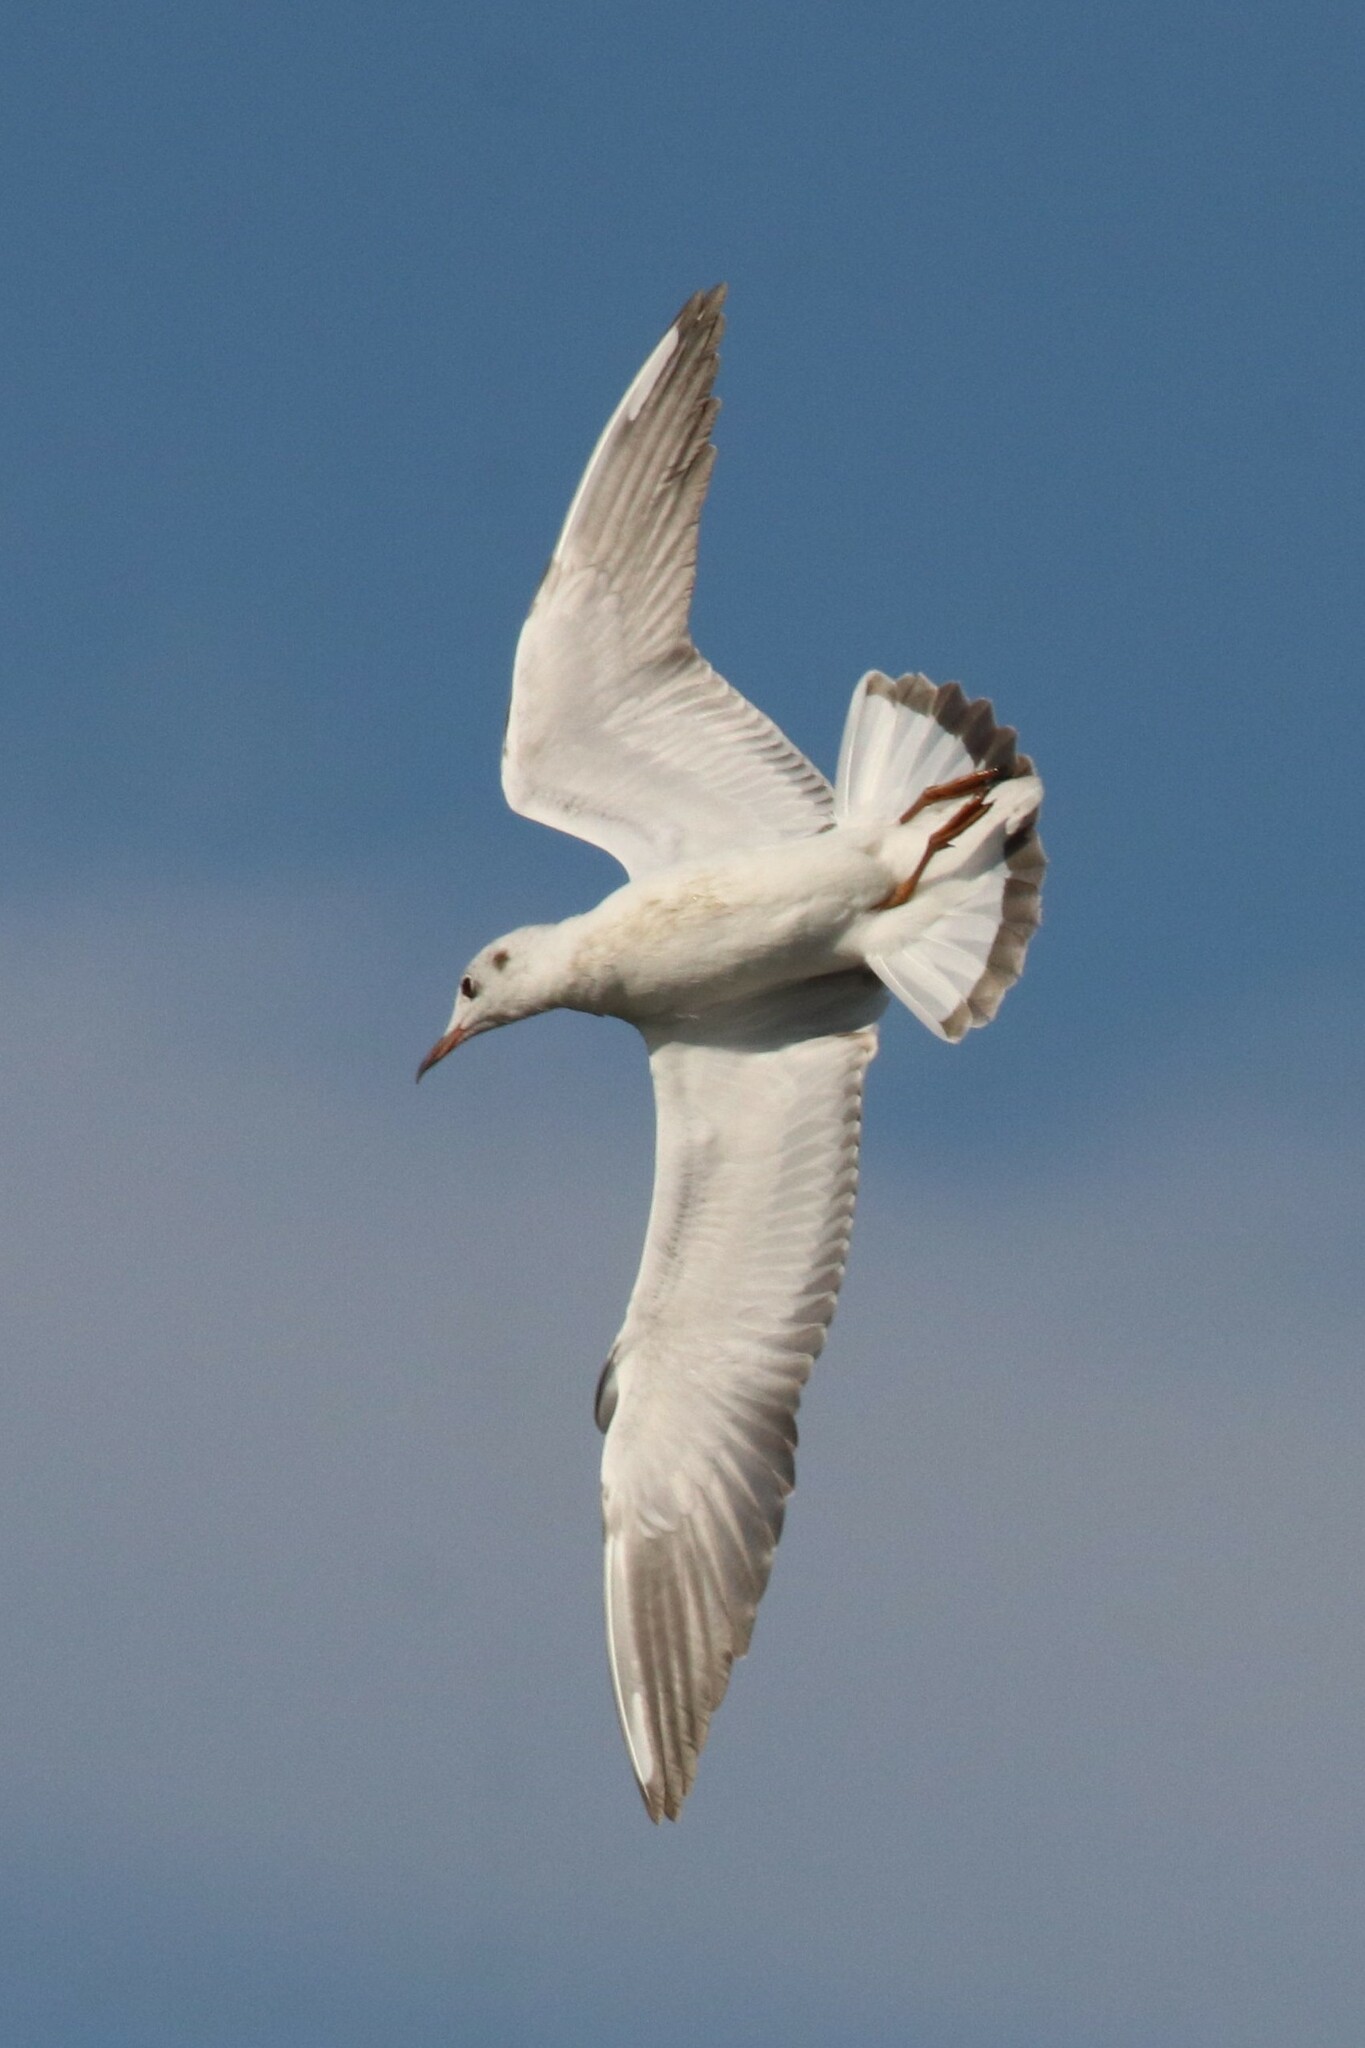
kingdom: Animalia
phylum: Chordata
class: Aves
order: Charadriiformes
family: Laridae
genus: Chroicocephalus
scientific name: Chroicocephalus ridibundus
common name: Black-headed gull
